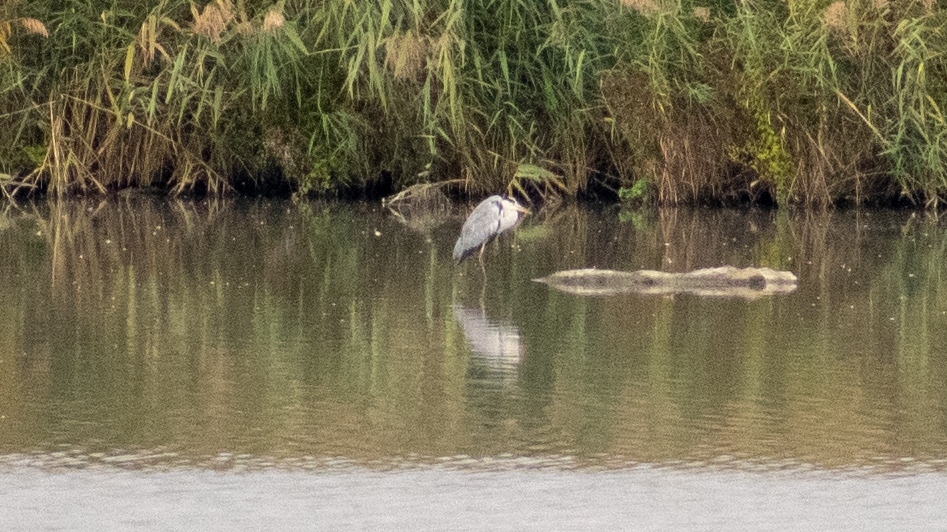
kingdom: Animalia
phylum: Chordata
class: Aves
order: Pelecaniformes
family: Ardeidae
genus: Ardea
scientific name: Ardea cinerea
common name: Grey heron
